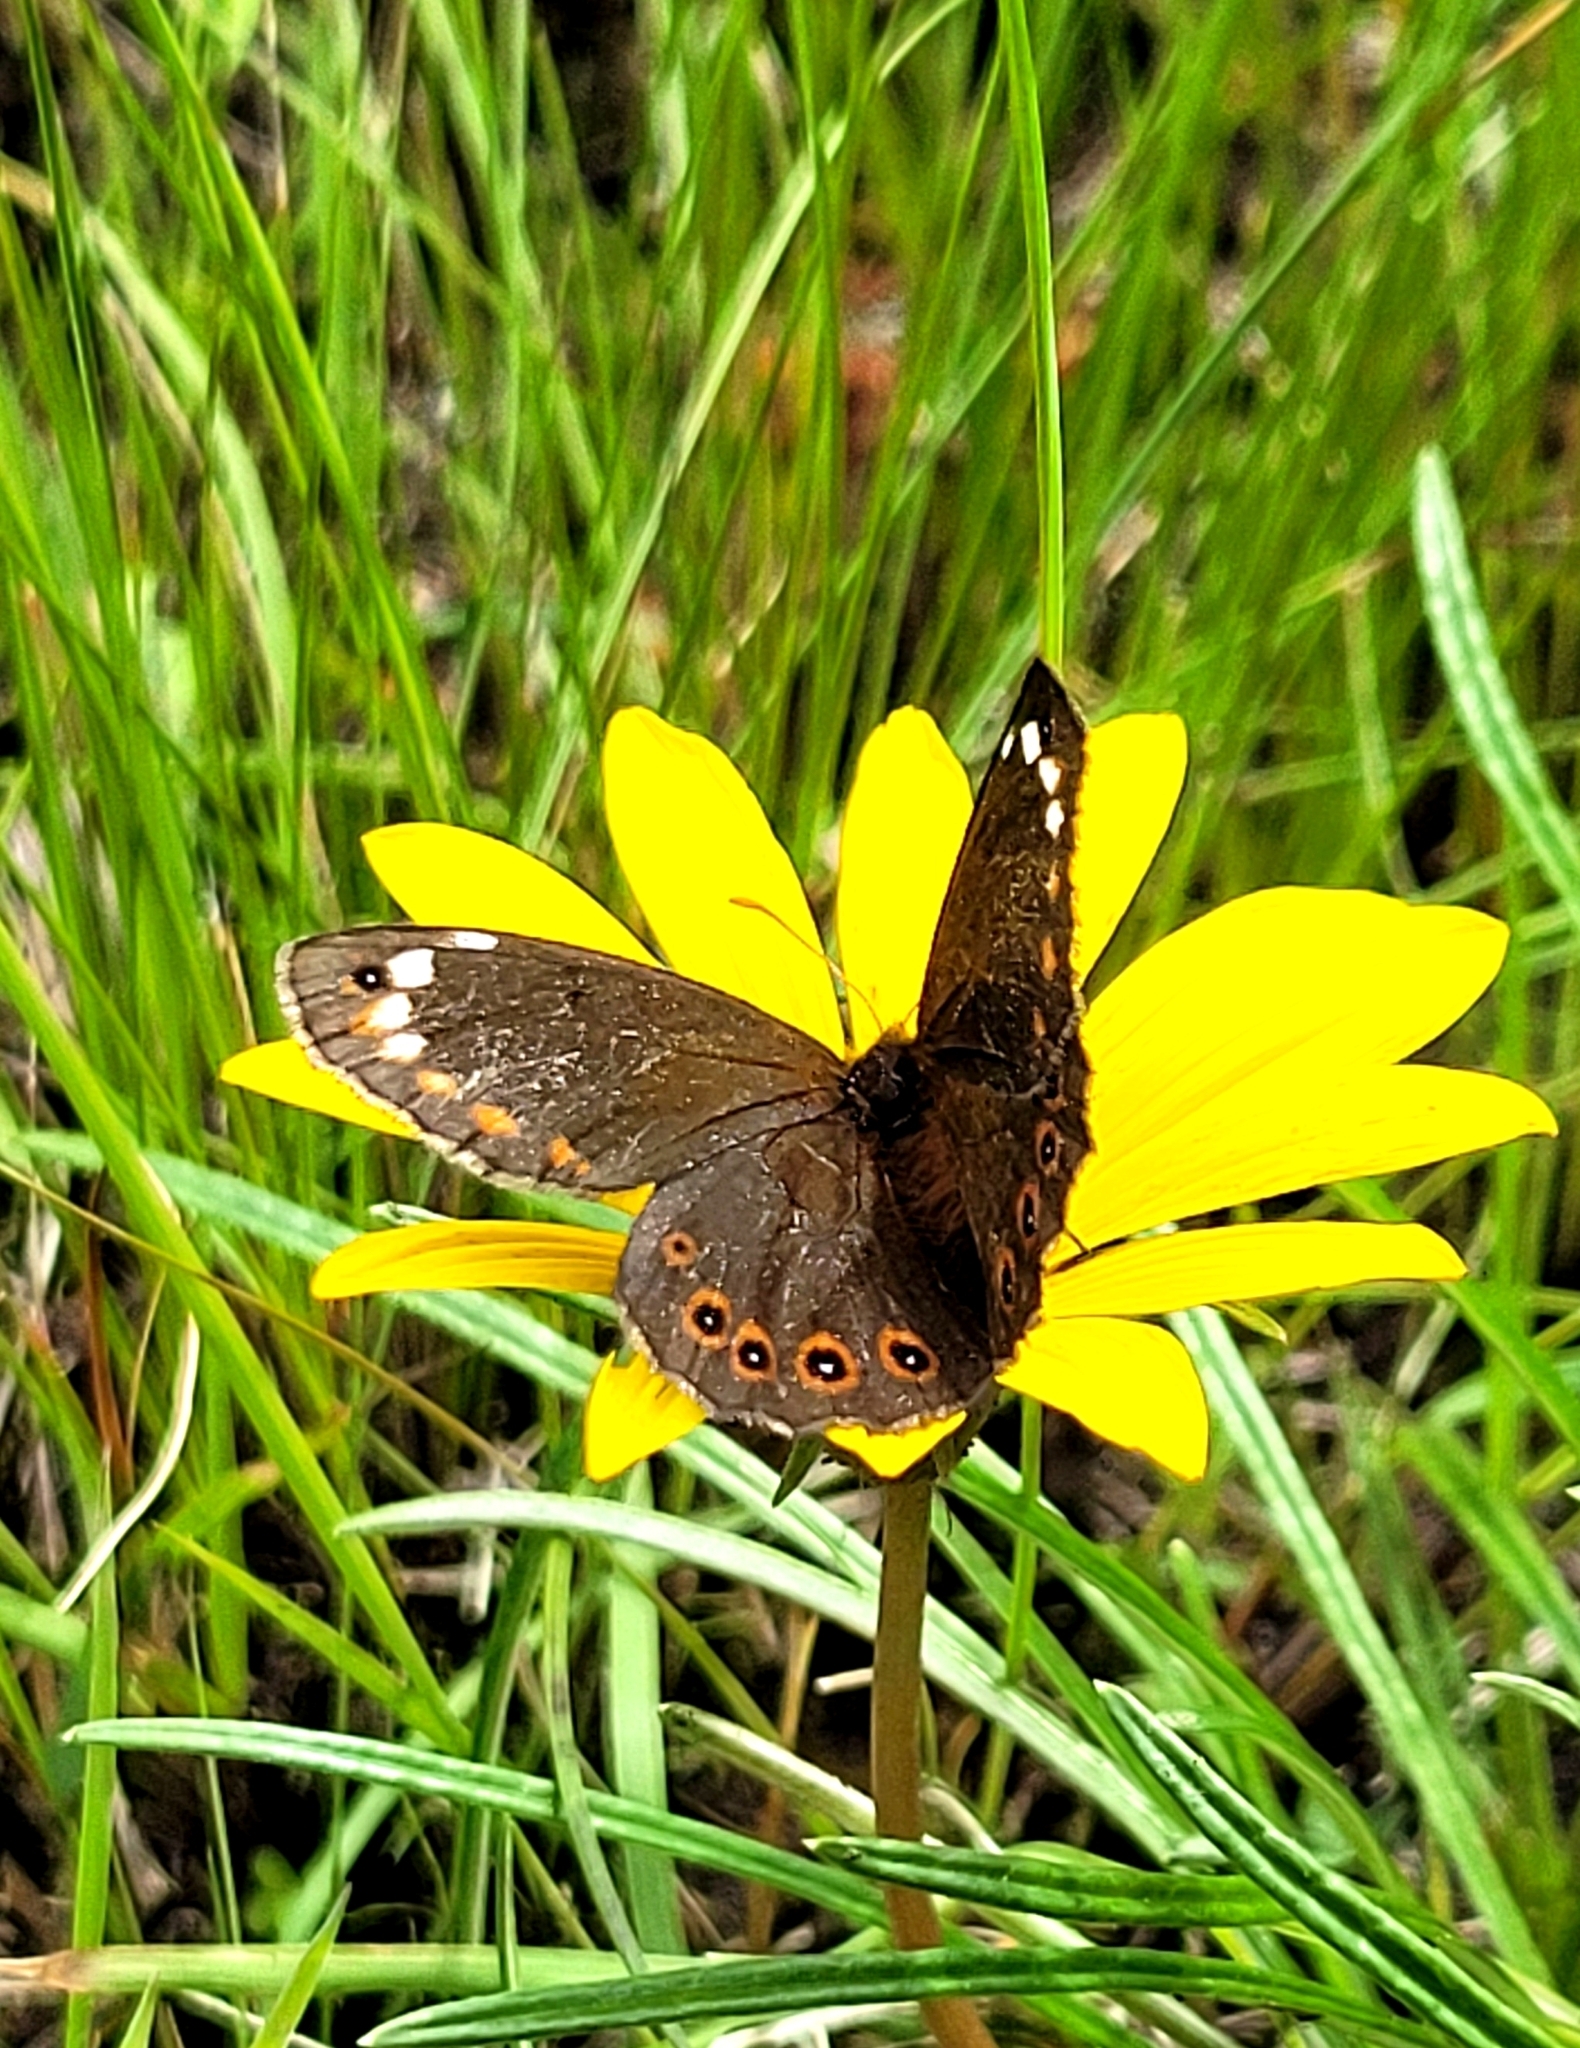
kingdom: Animalia
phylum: Arthropoda
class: Insecta
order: Lepidoptera
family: Nymphalidae
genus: Serradinga
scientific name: Serradinga
